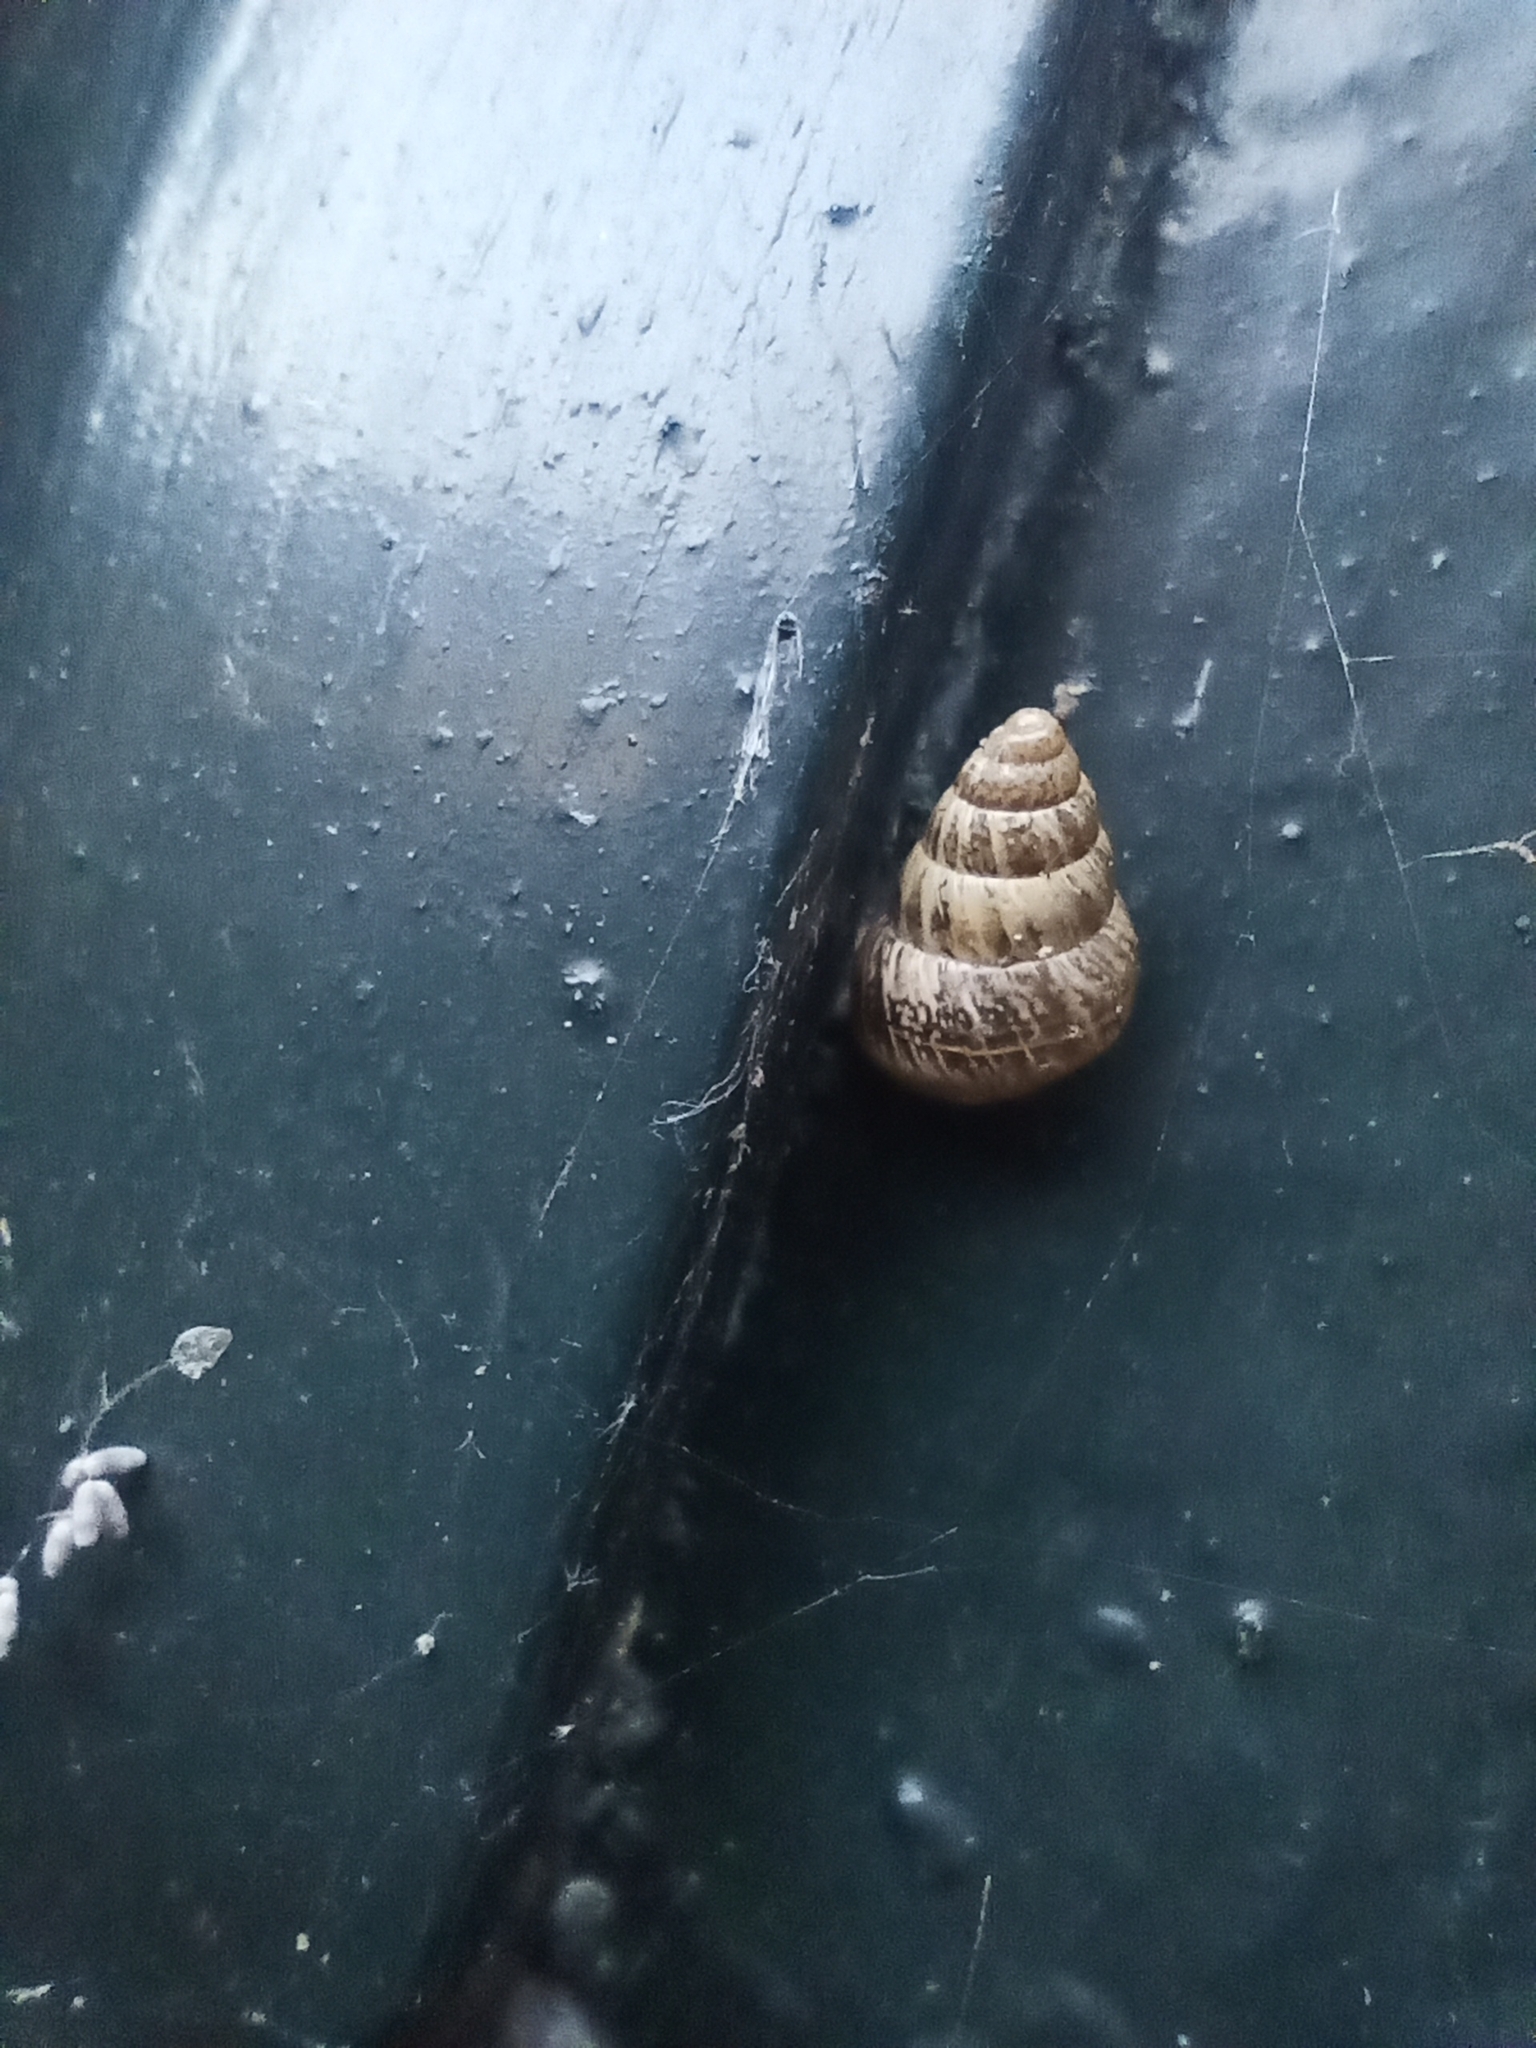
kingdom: Animalia
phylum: Mollusca
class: Gastropoda
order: Stylommatophora
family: Geomitridae
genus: Cochlicella
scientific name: Cochlicella barbara
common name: Potbellied helicellid
